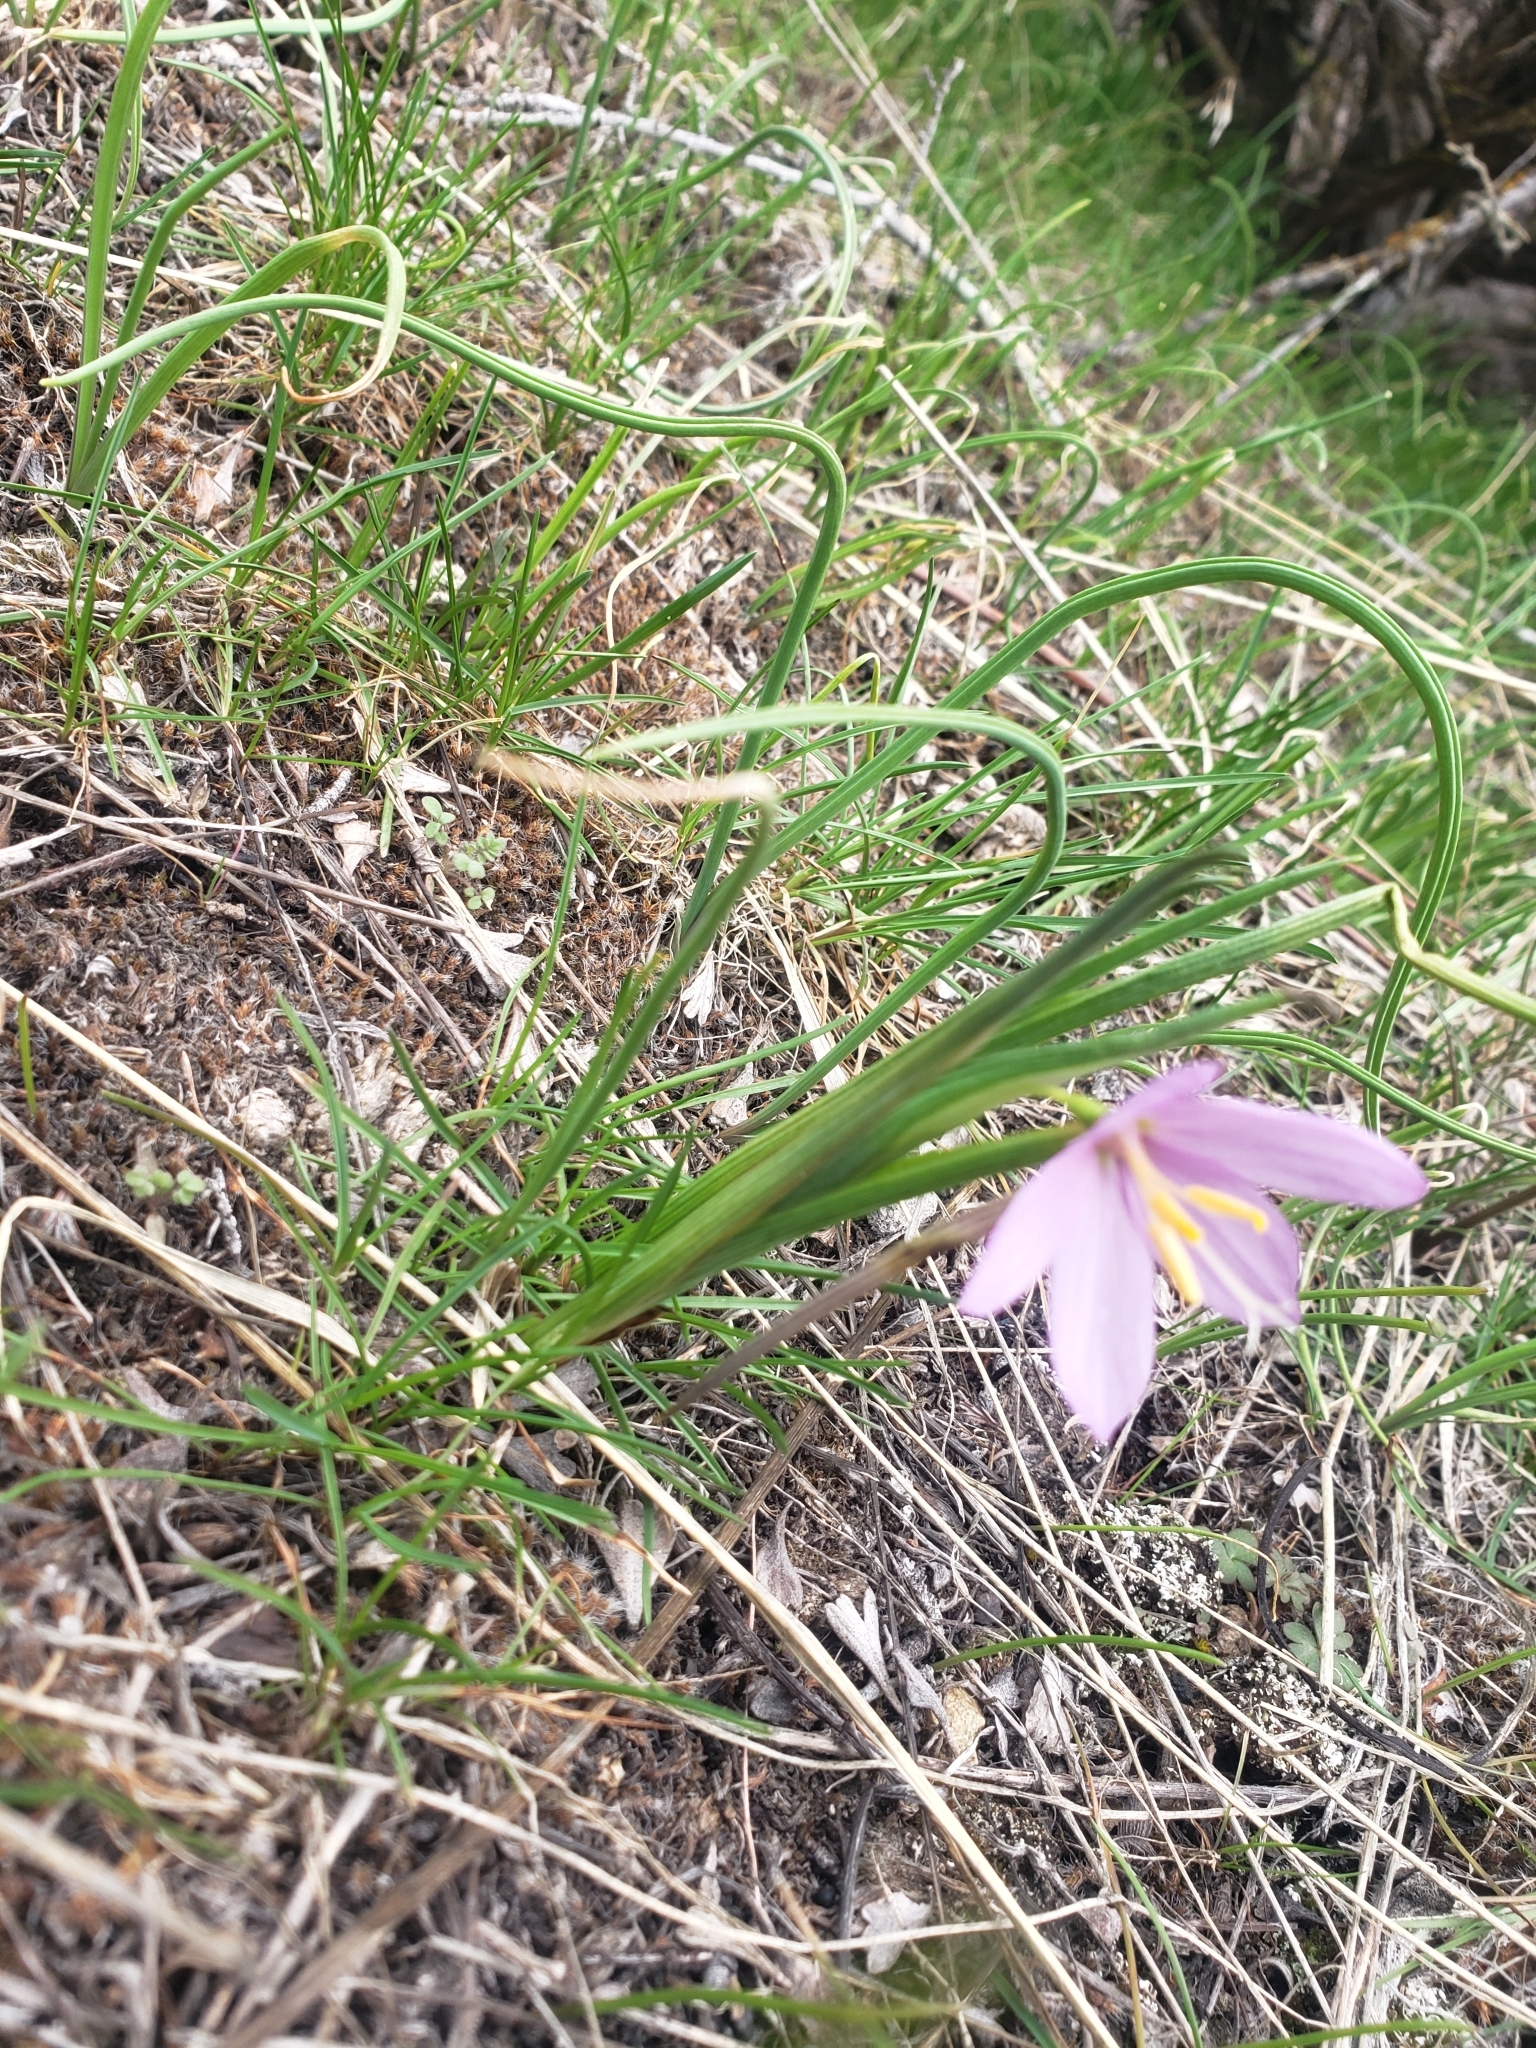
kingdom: Plantae
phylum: Tracheophyta
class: Liliopsida
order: Asparagales
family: Iridaceae
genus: Olsynium
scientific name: Olsynium douglasii
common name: Douglas' grasswidow
